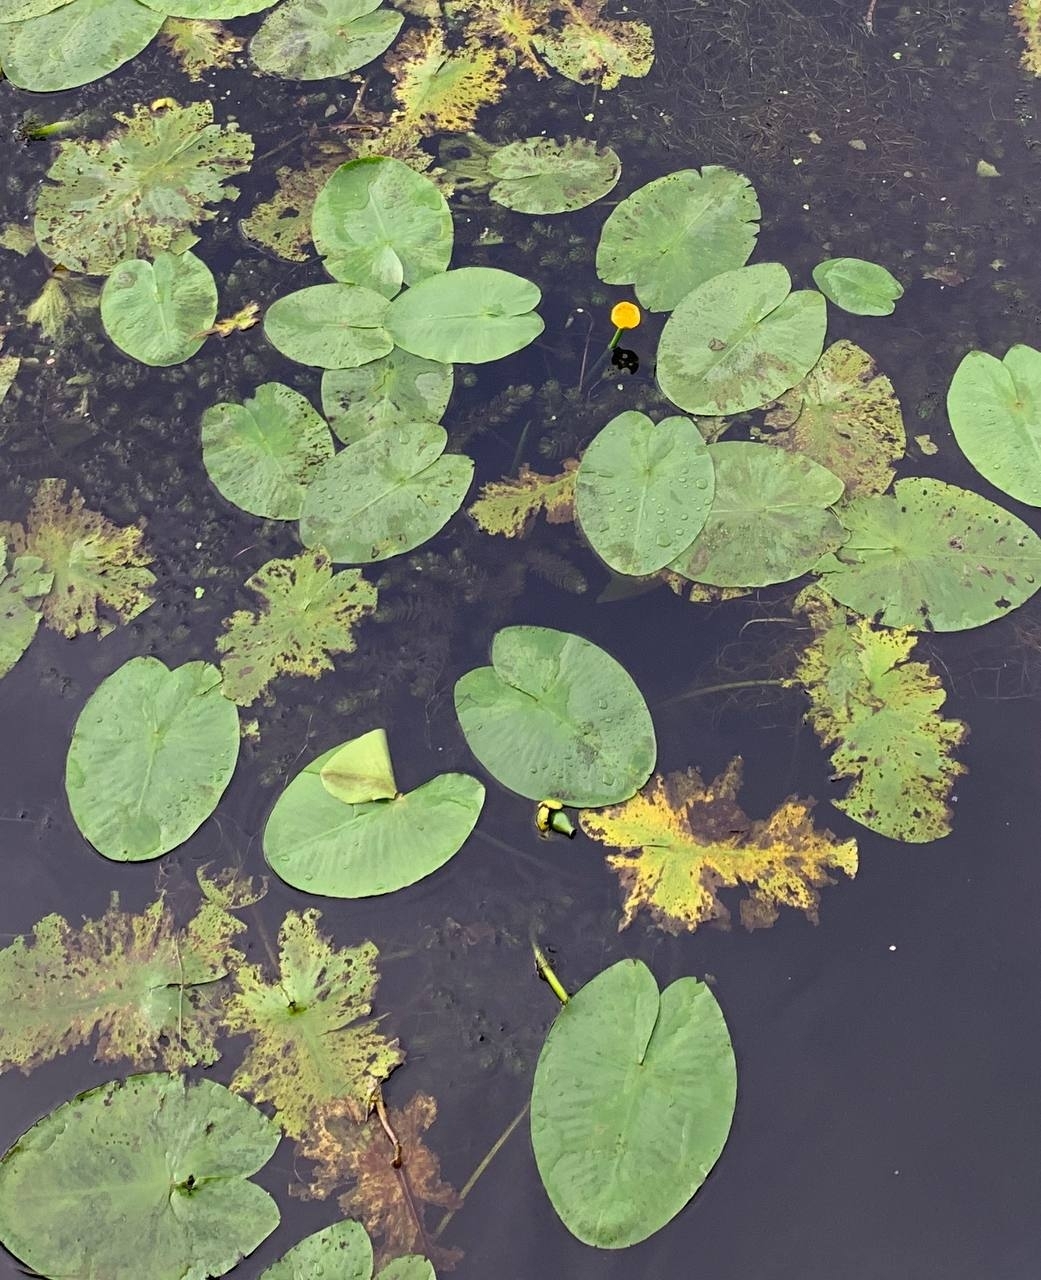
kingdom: Plantae
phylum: Tracheophyta
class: Magnoliopsida
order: Nymphaeales
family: Nymphaeaceae
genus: Nuphar
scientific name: Nuphar lutea
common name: Yellow water-lily
